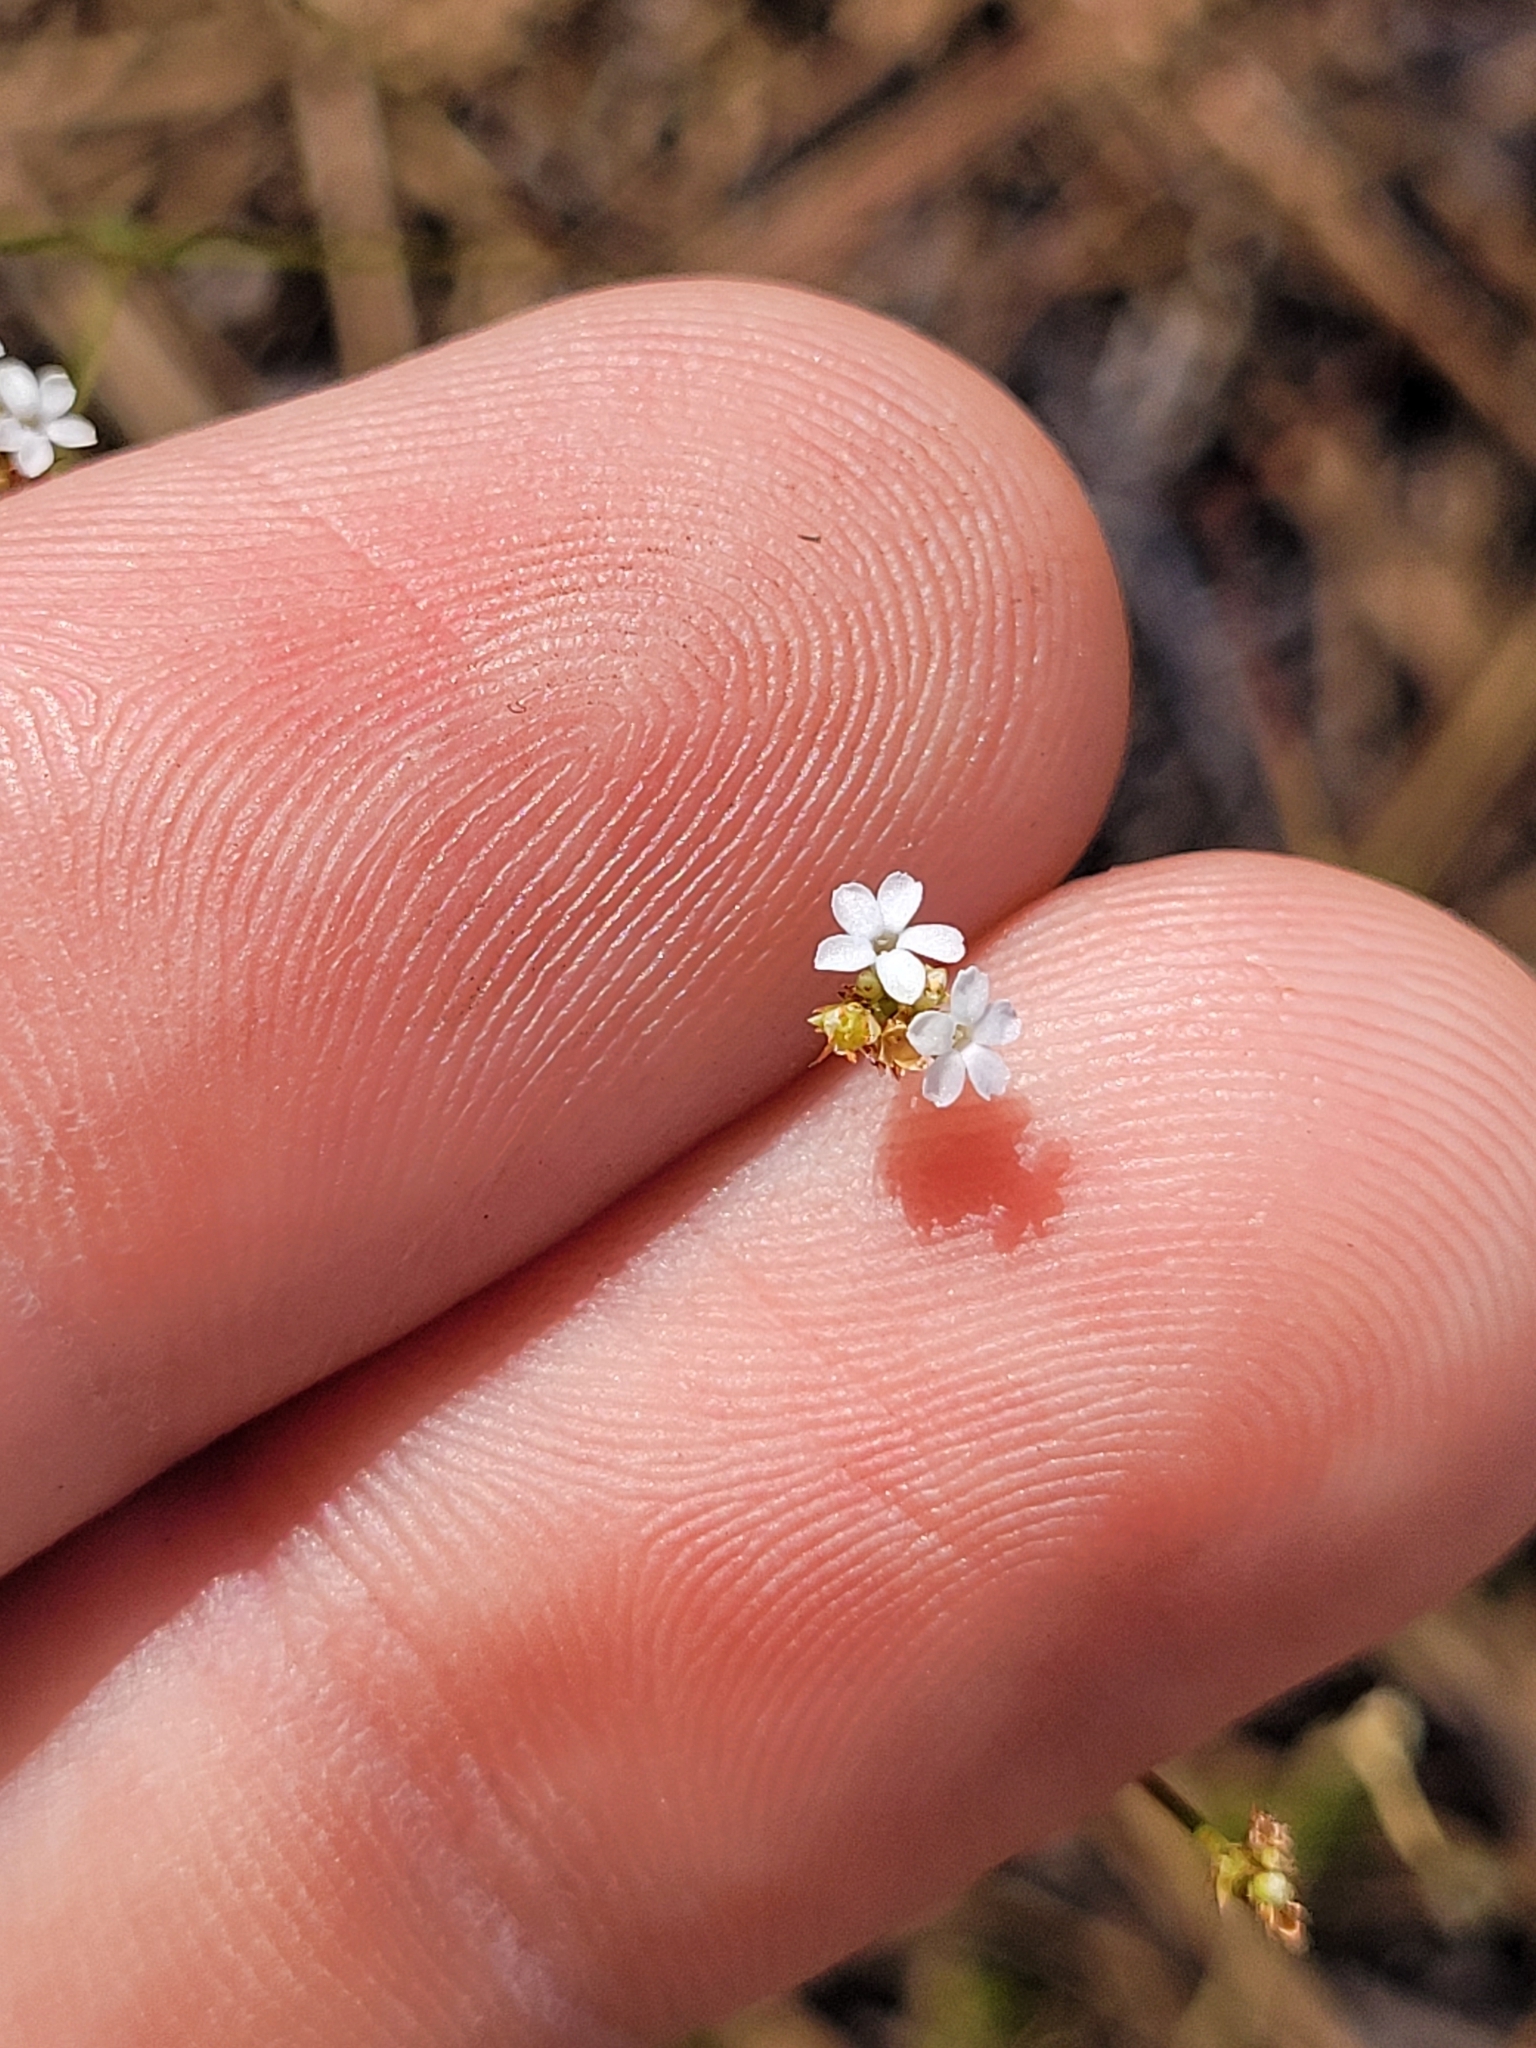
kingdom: Plantae
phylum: Tracheophyta
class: Magnoliopsida
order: Caryophyllales
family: Caryophyllaceae
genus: Stipulicida
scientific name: Stipulicida setacea
